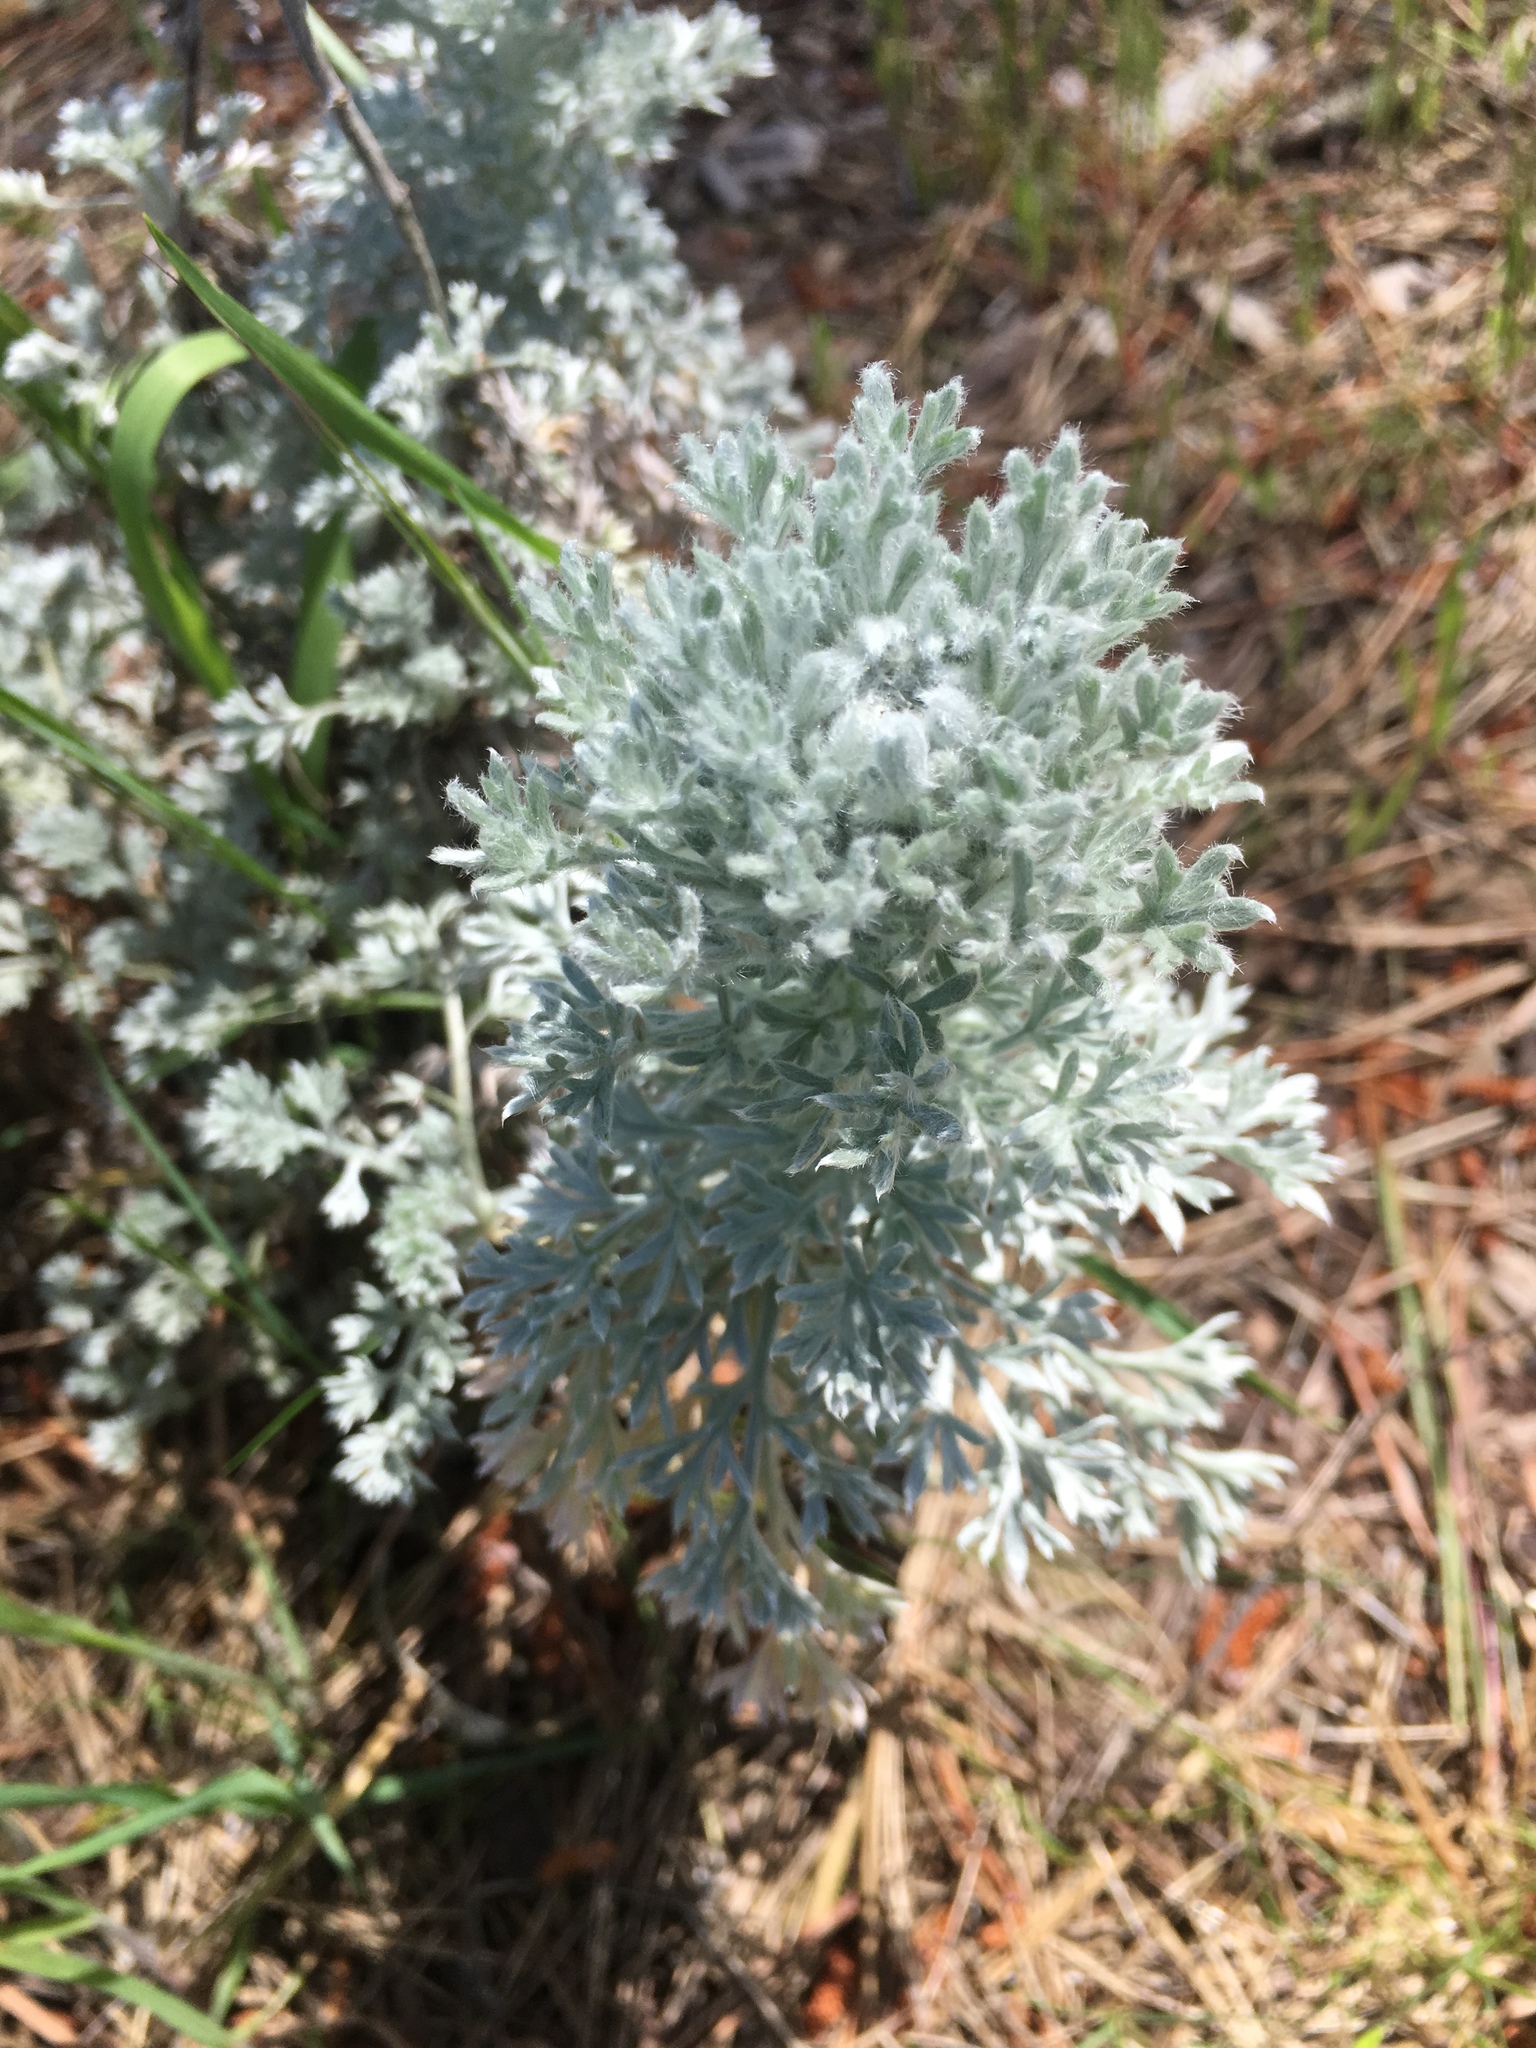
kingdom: Plantae
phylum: Tracheophyta
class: Magnoliopsida
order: Asterales
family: Asteraceae
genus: Artemisia
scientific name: Artemisia pycnocephala
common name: Coastal sagewort
